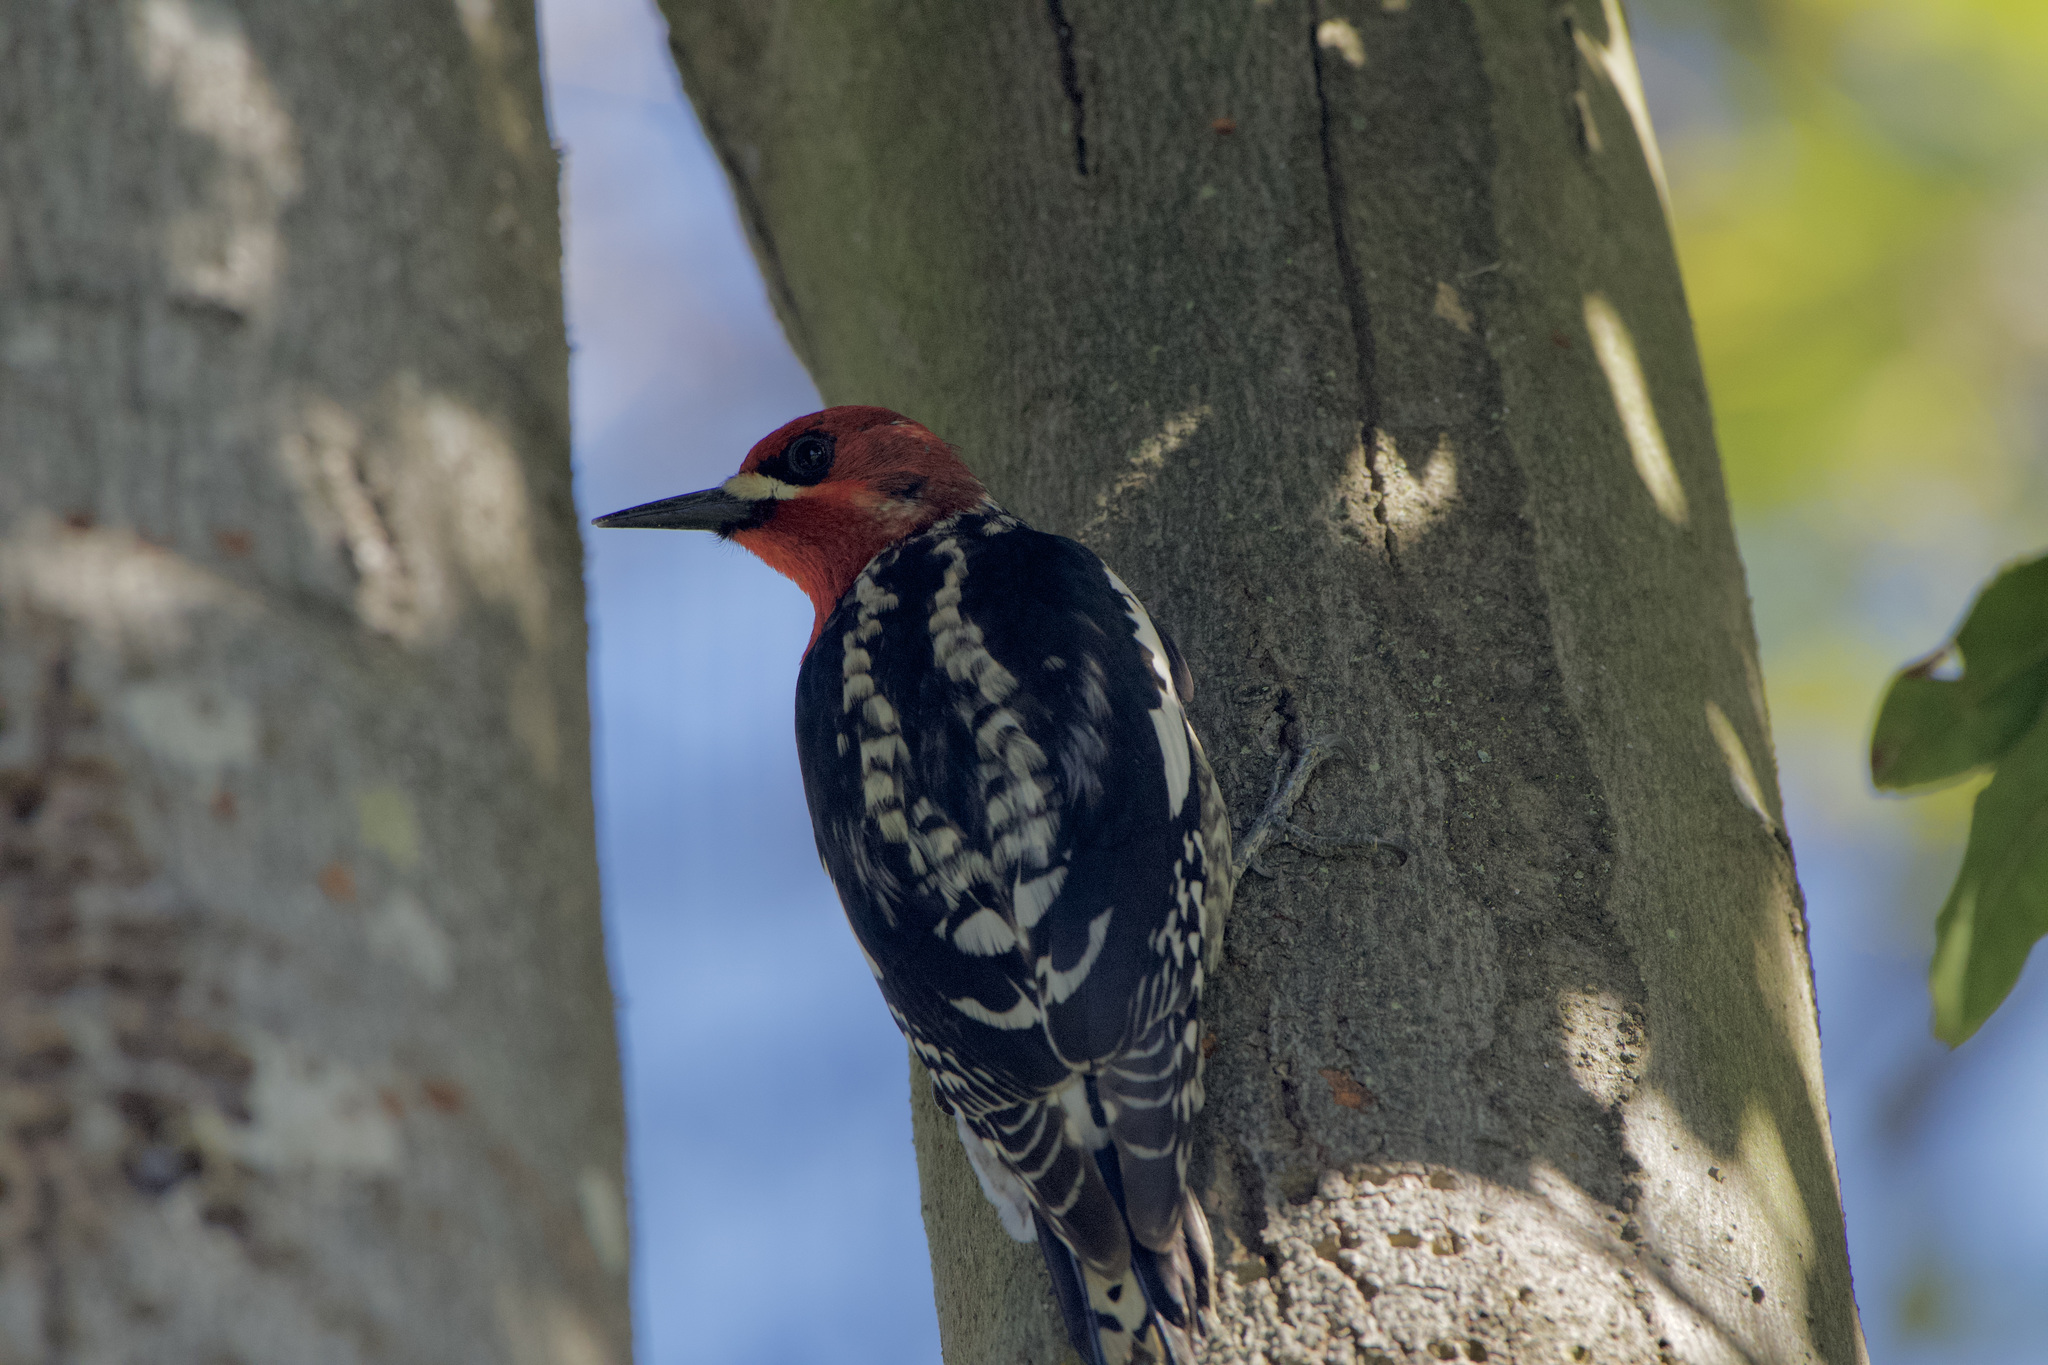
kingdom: Animalia
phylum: Chordata
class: Aves
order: Piciformes
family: Picidae
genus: Sphyrapicus
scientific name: Sphyrapicus ruber
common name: Red-breasted sapsucker
